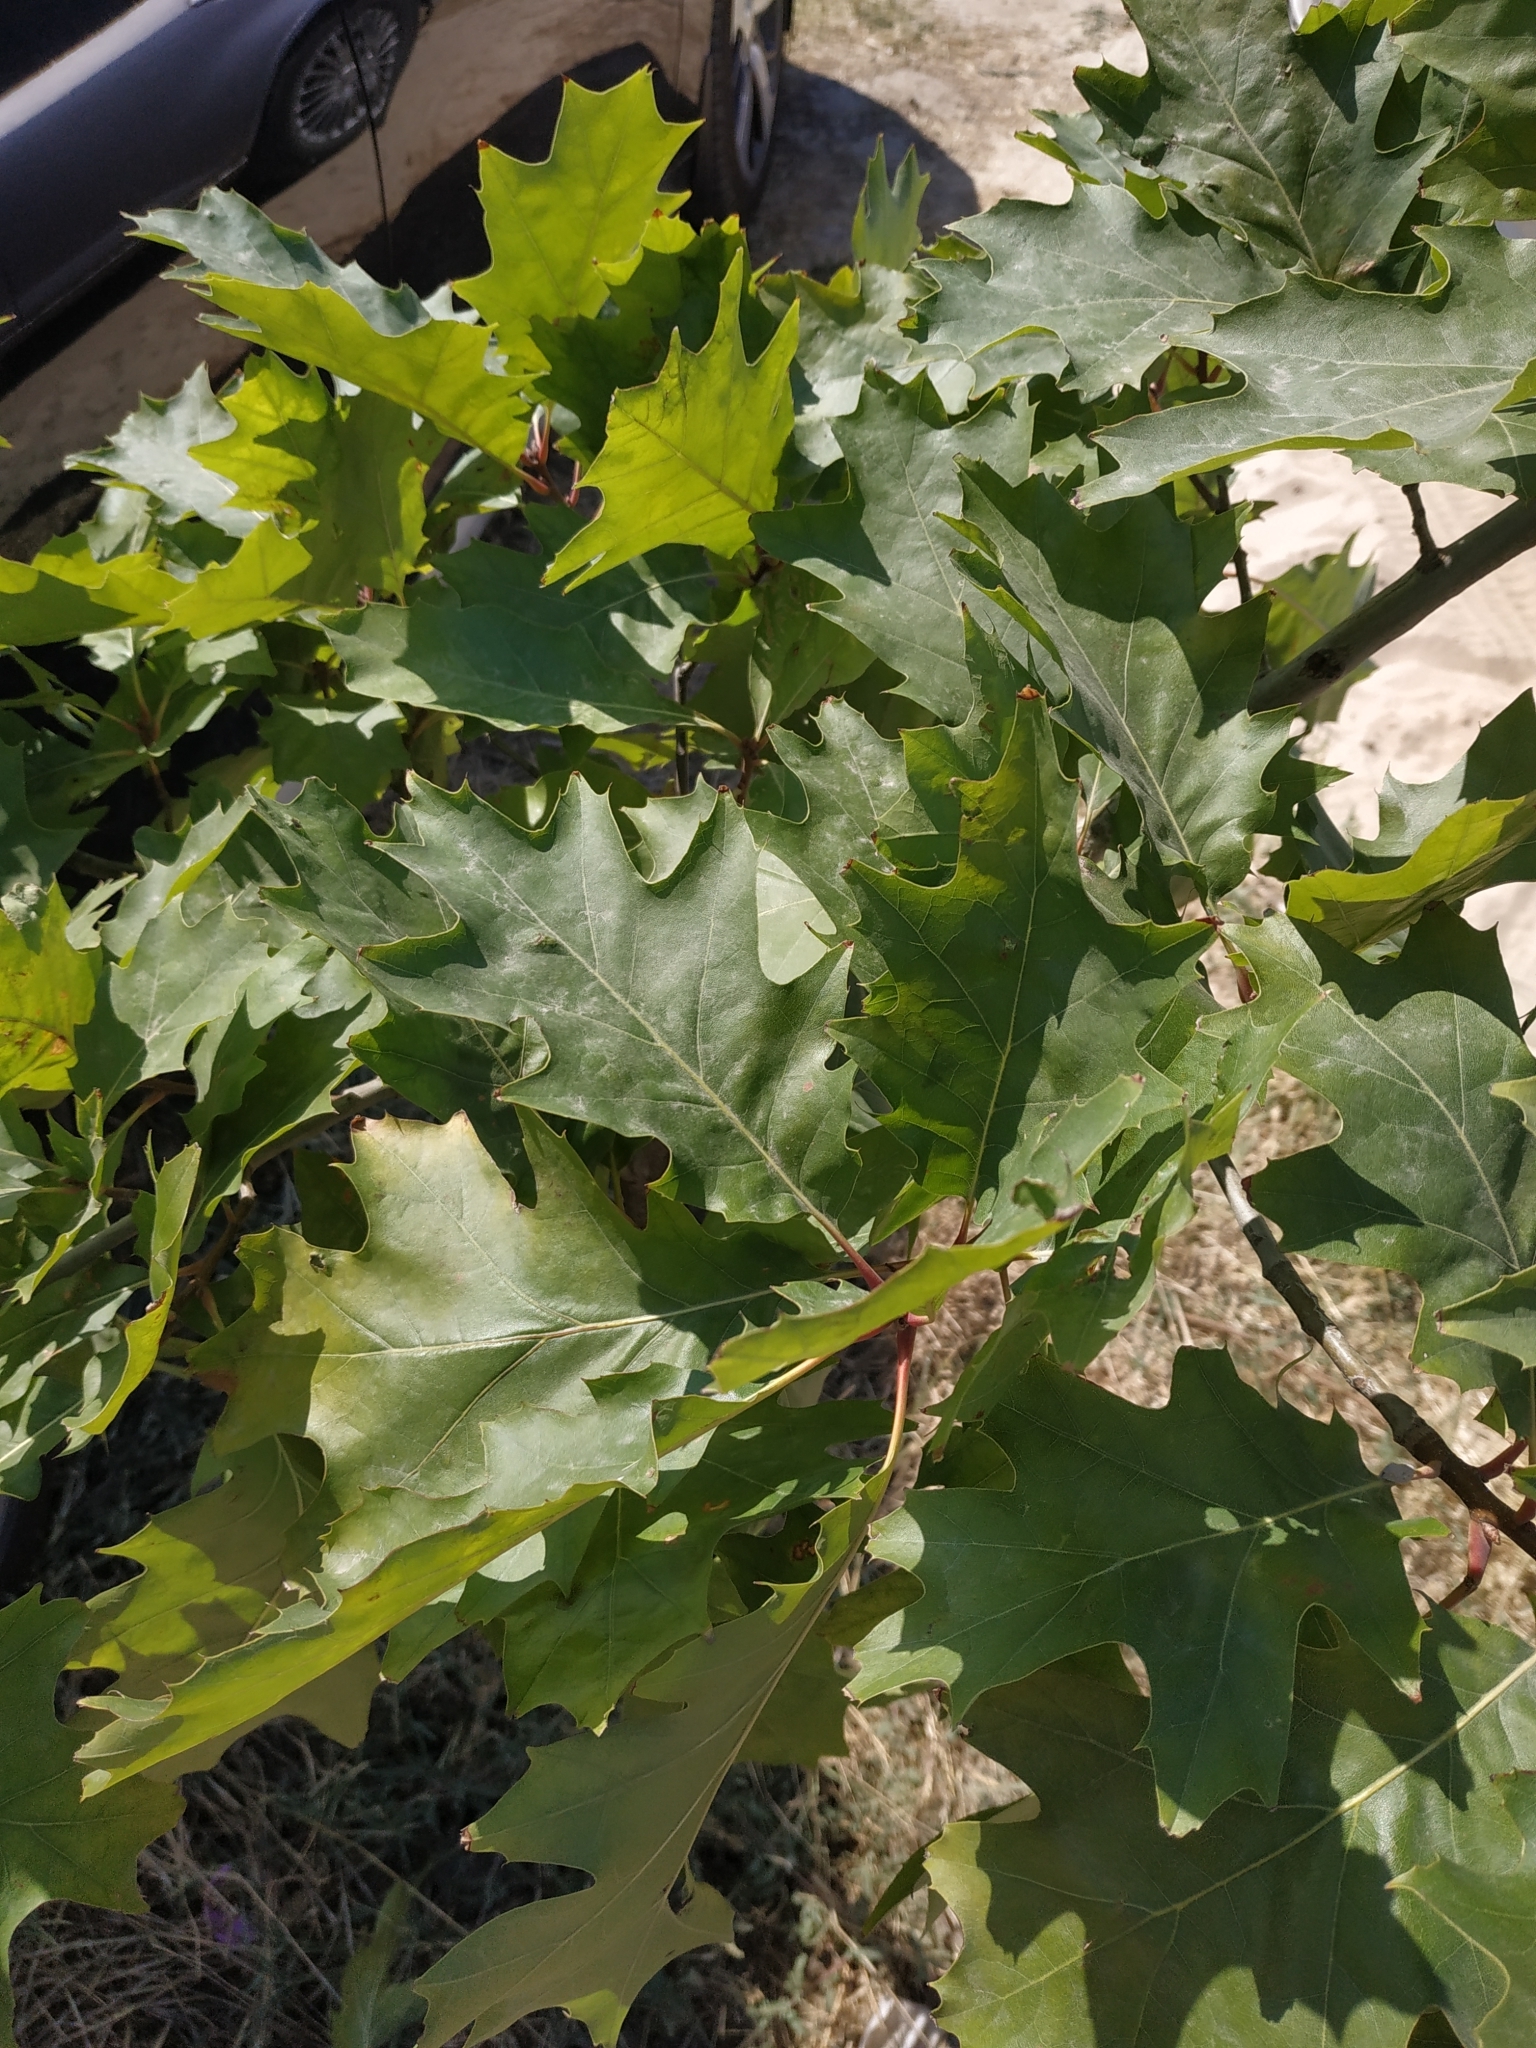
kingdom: Plantae
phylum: Tracheophyta
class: Magnoliopsida
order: Fagales
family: Fagaceae
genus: Quercus
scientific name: Quercus rubra
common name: Red oak
